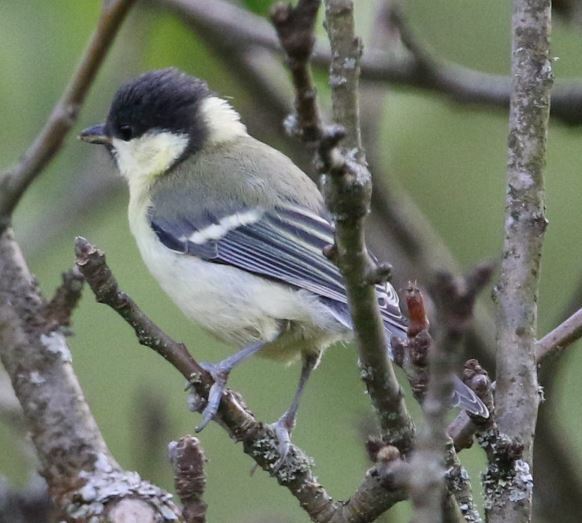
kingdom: Animalia
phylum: Chordata
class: Aves
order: Passeriformes
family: Paridae
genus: Parus
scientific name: Parus major
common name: Great tit
